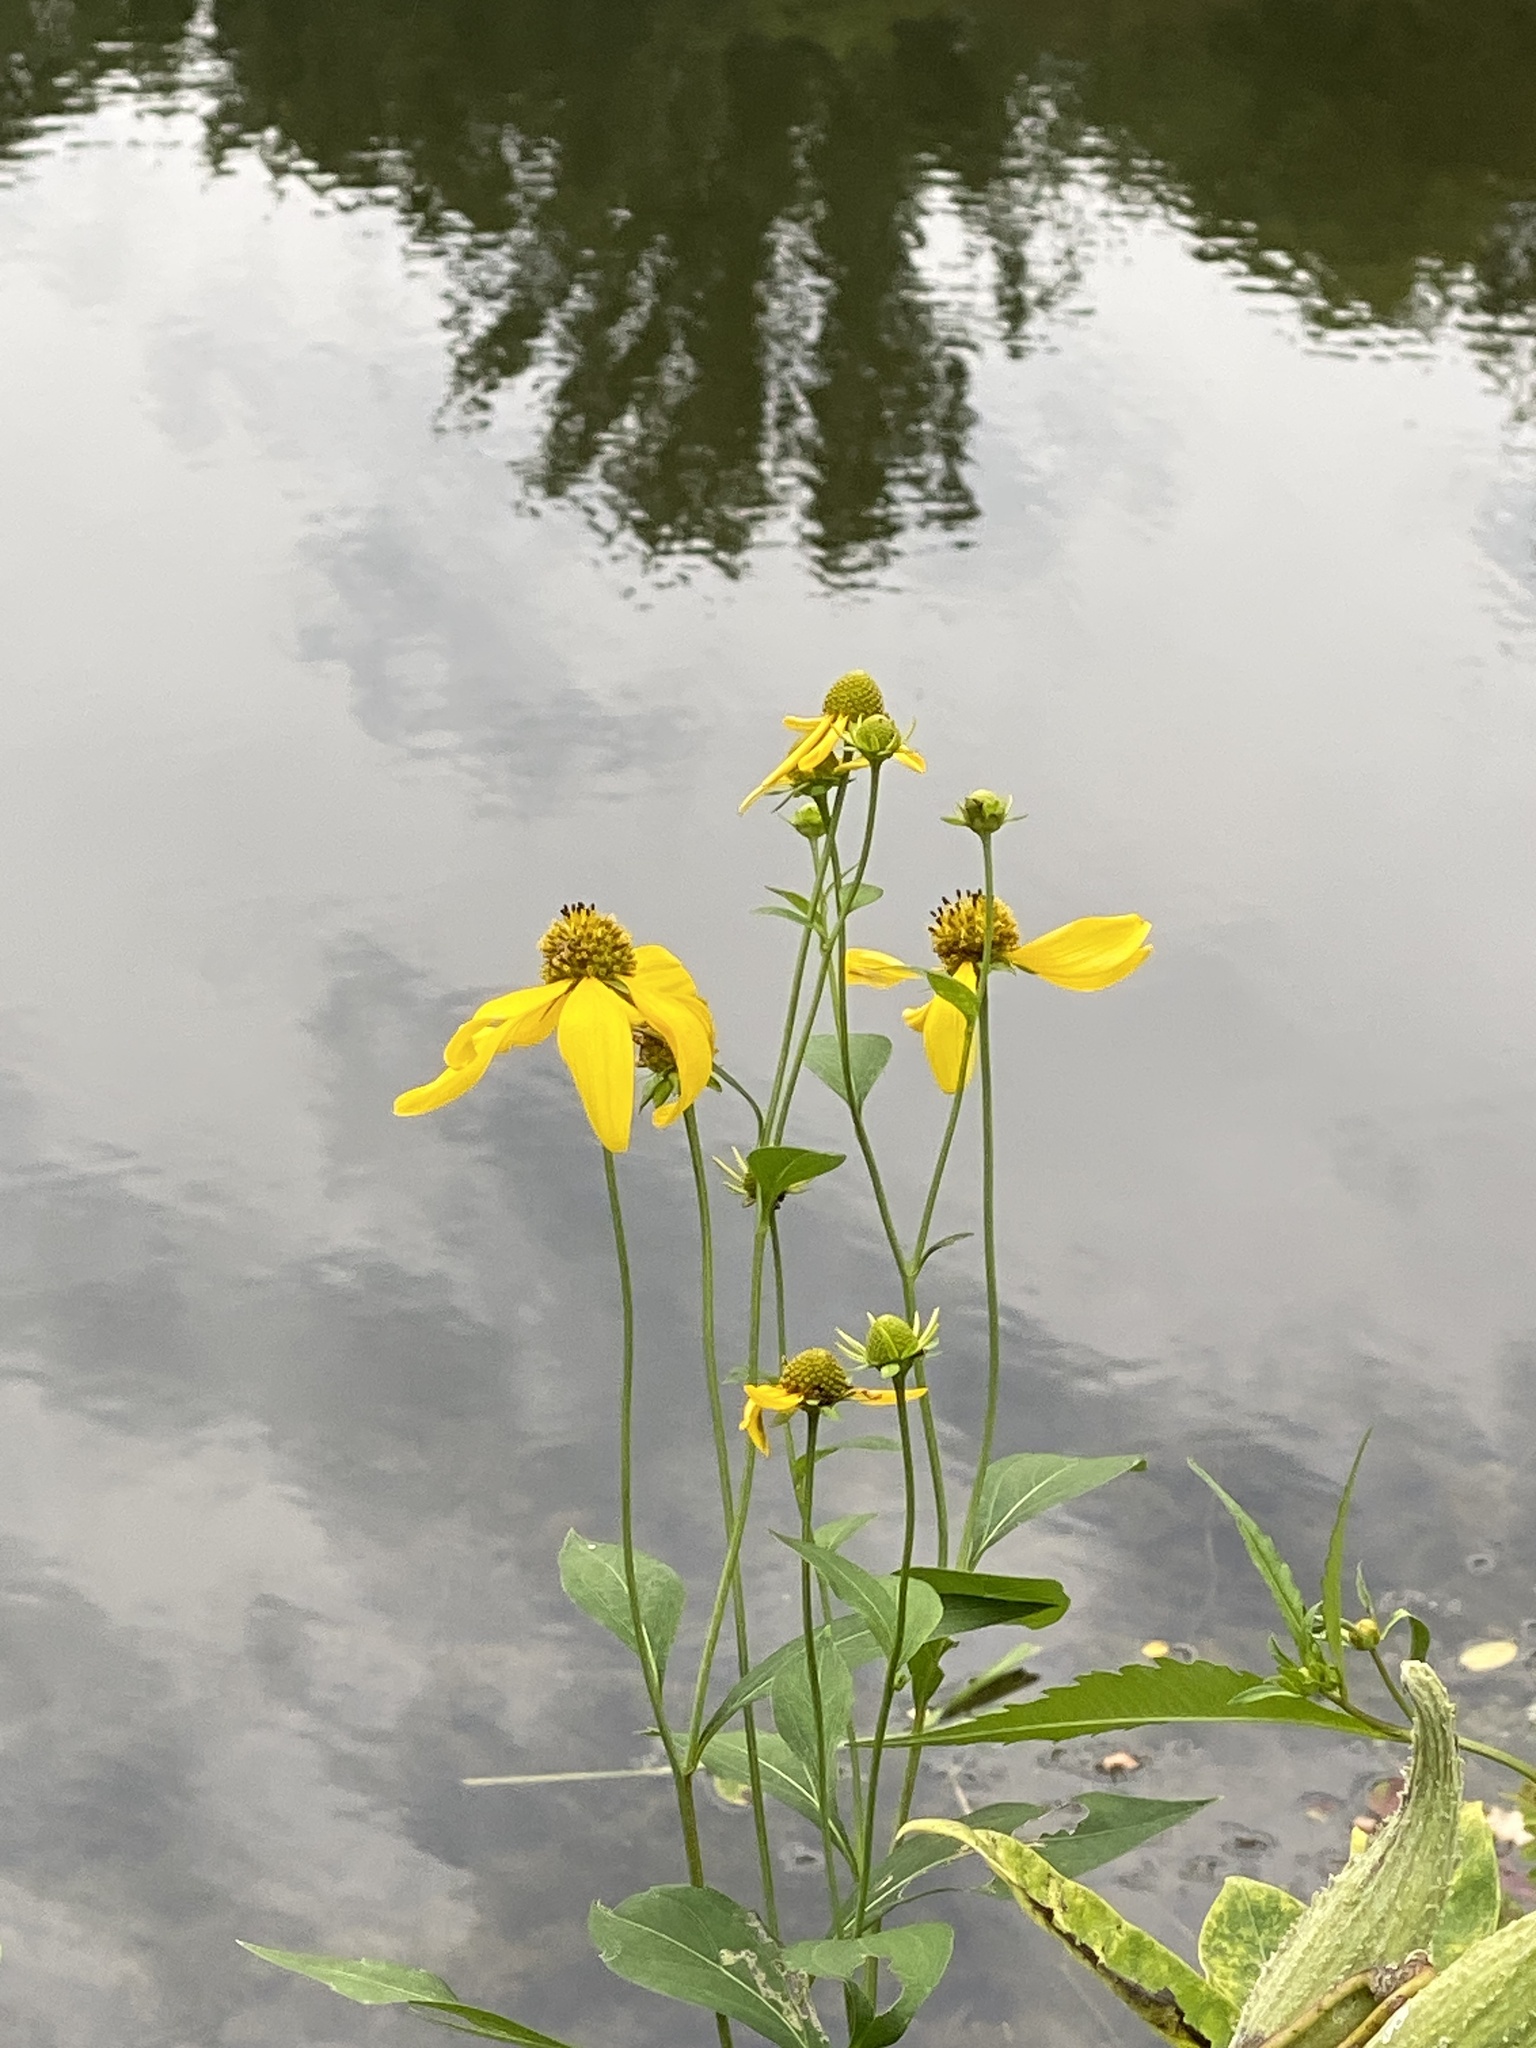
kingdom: Plantae
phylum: Tracheophyta
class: Magnoliopsida
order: Asterales
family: Asteraceae
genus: Rudbeckia
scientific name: Rudbeckia laciniata
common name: Coneflower
